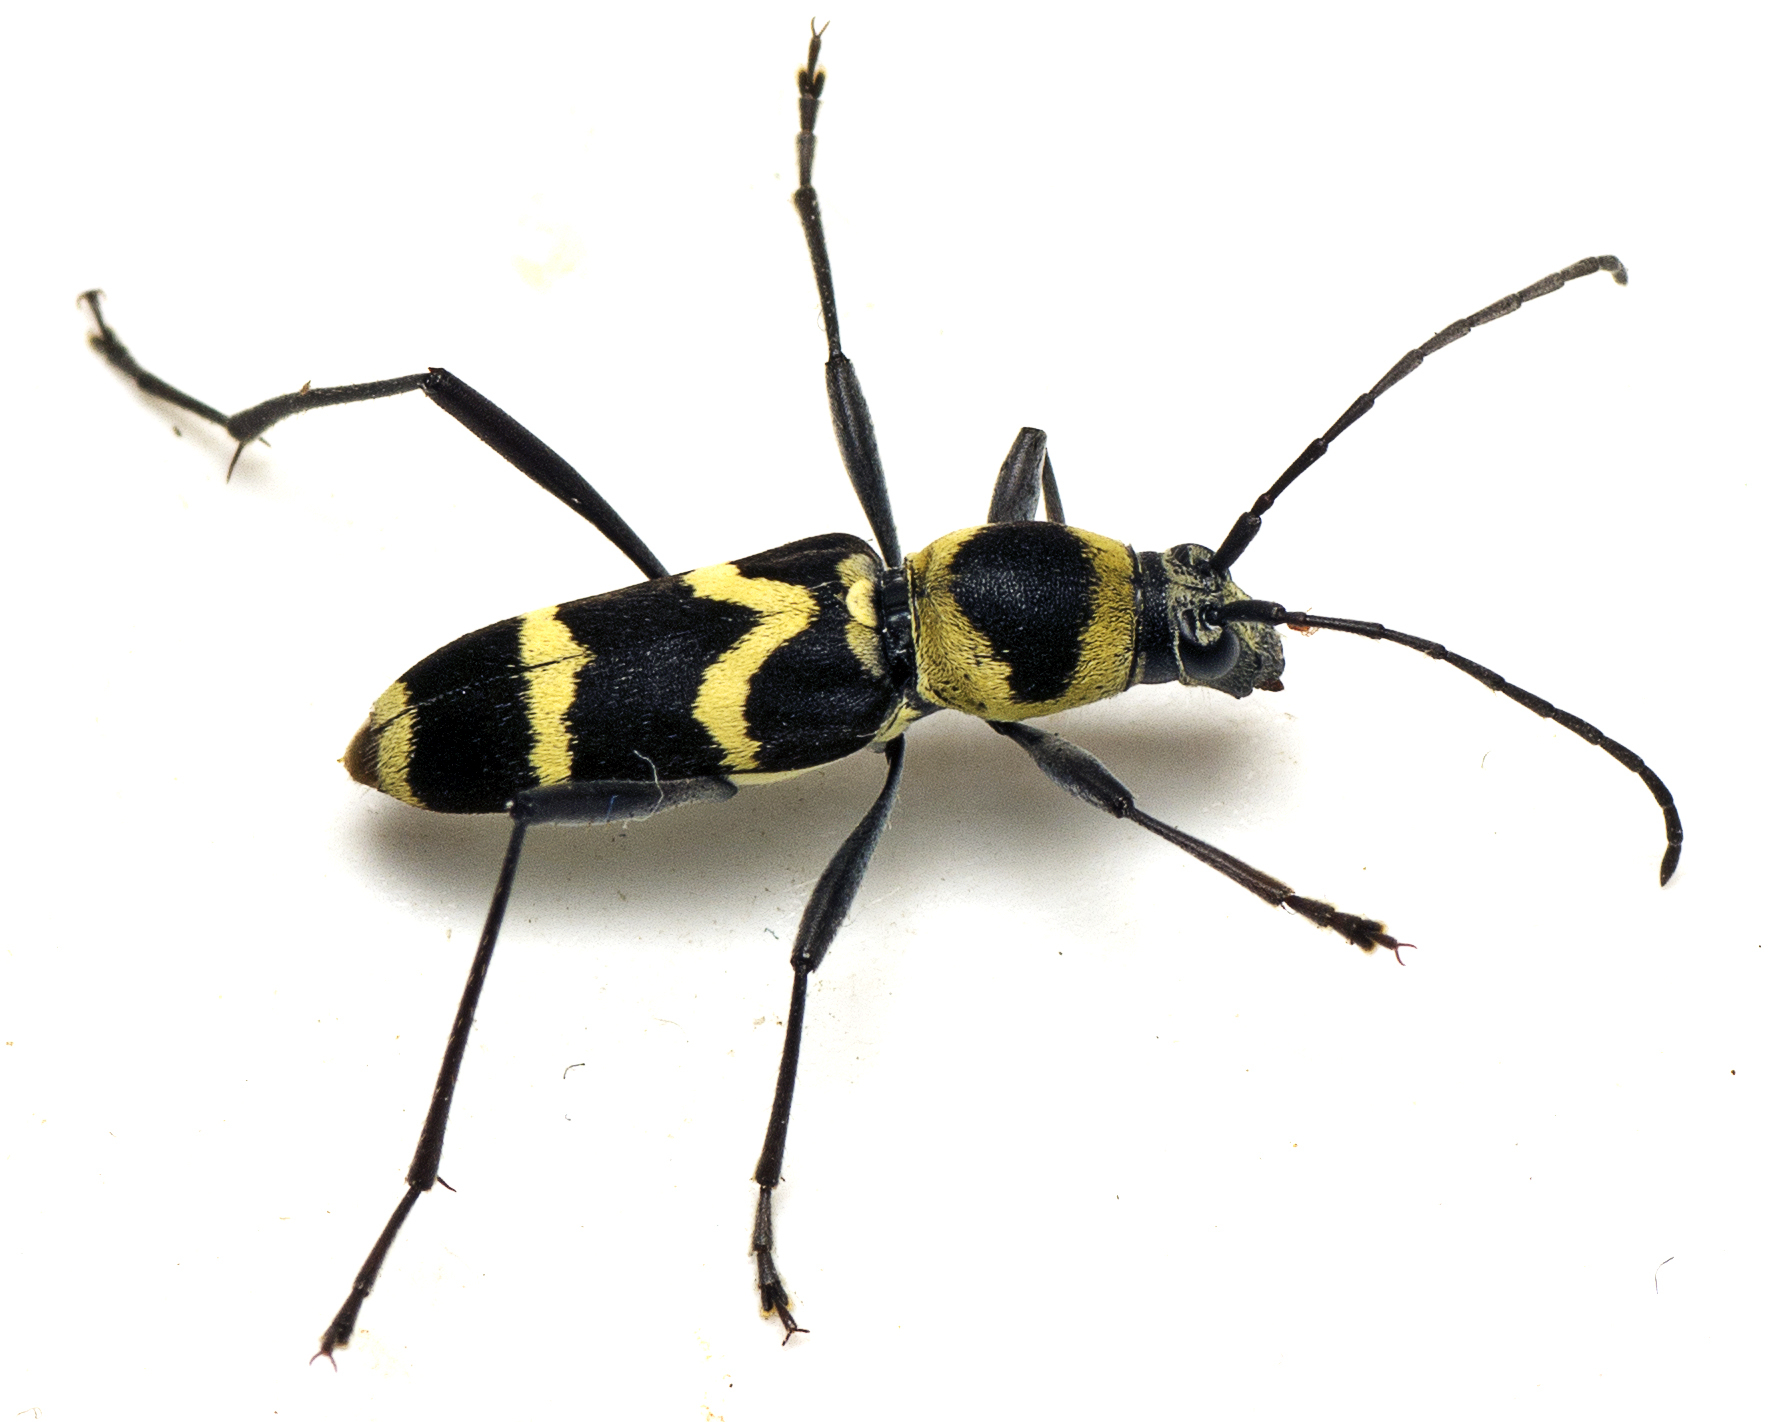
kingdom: Animalia
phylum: Arthropoda
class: Insecta
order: Coleoptera
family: Cerambycidae
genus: Clytus
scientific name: Clytus curtisi
